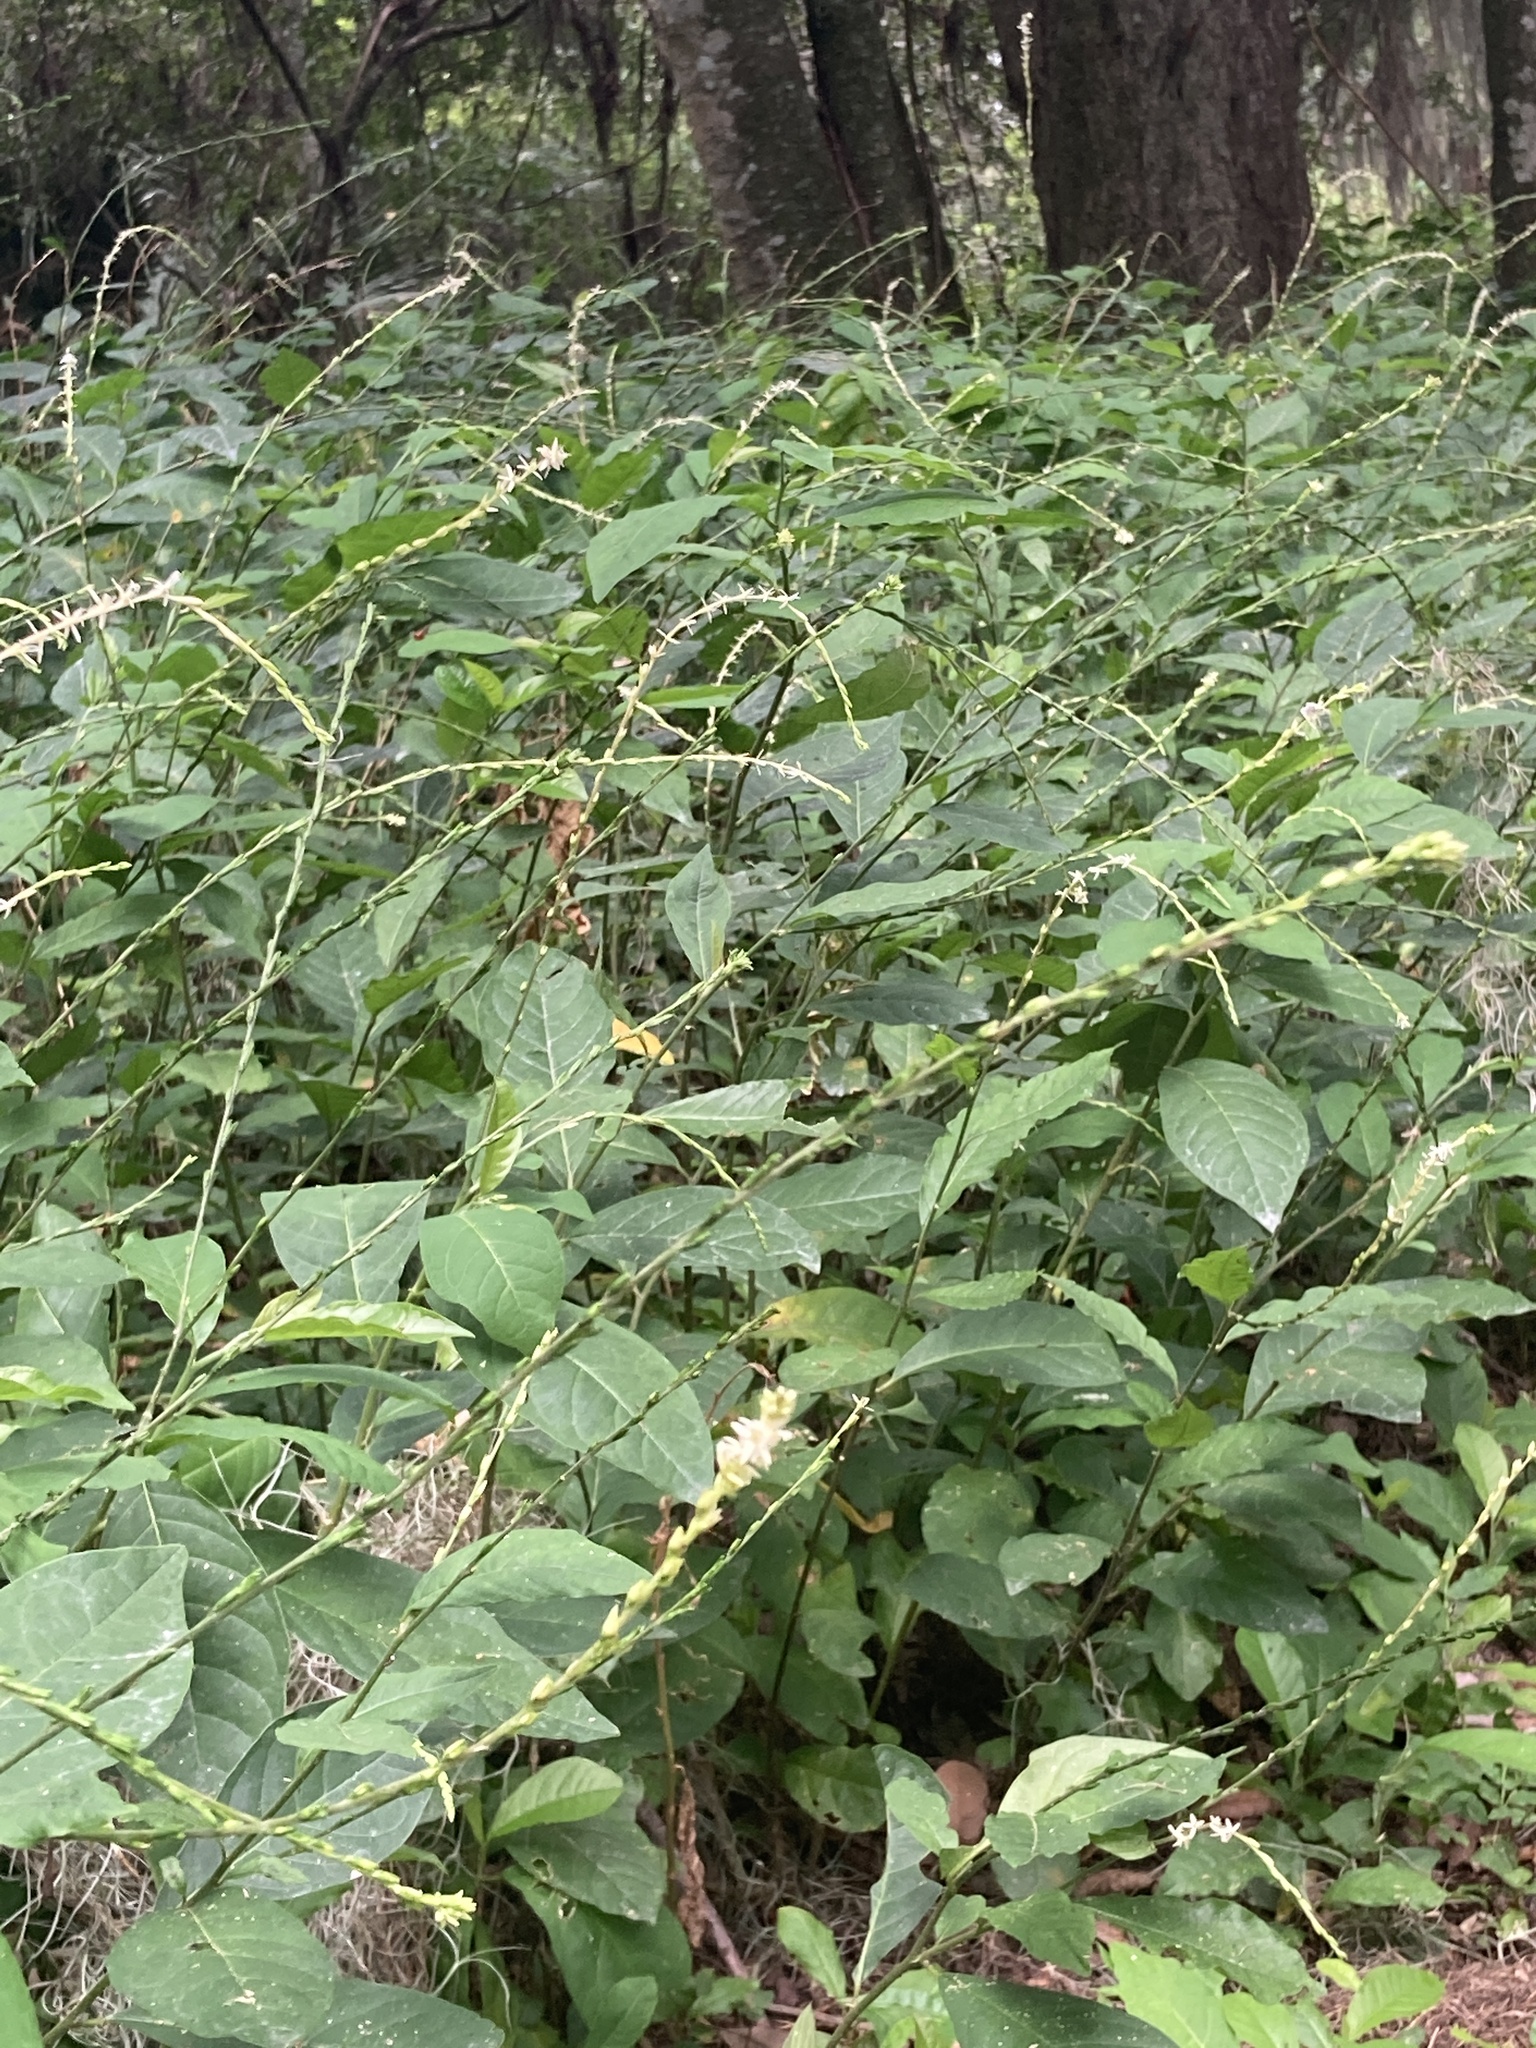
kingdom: Plantae
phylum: Tracheophyta
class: Magnoliopsida
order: Caryophyllales
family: Phytolaccaceae
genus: Petiveria
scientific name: Petiveria alliacea
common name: Garlicweed
